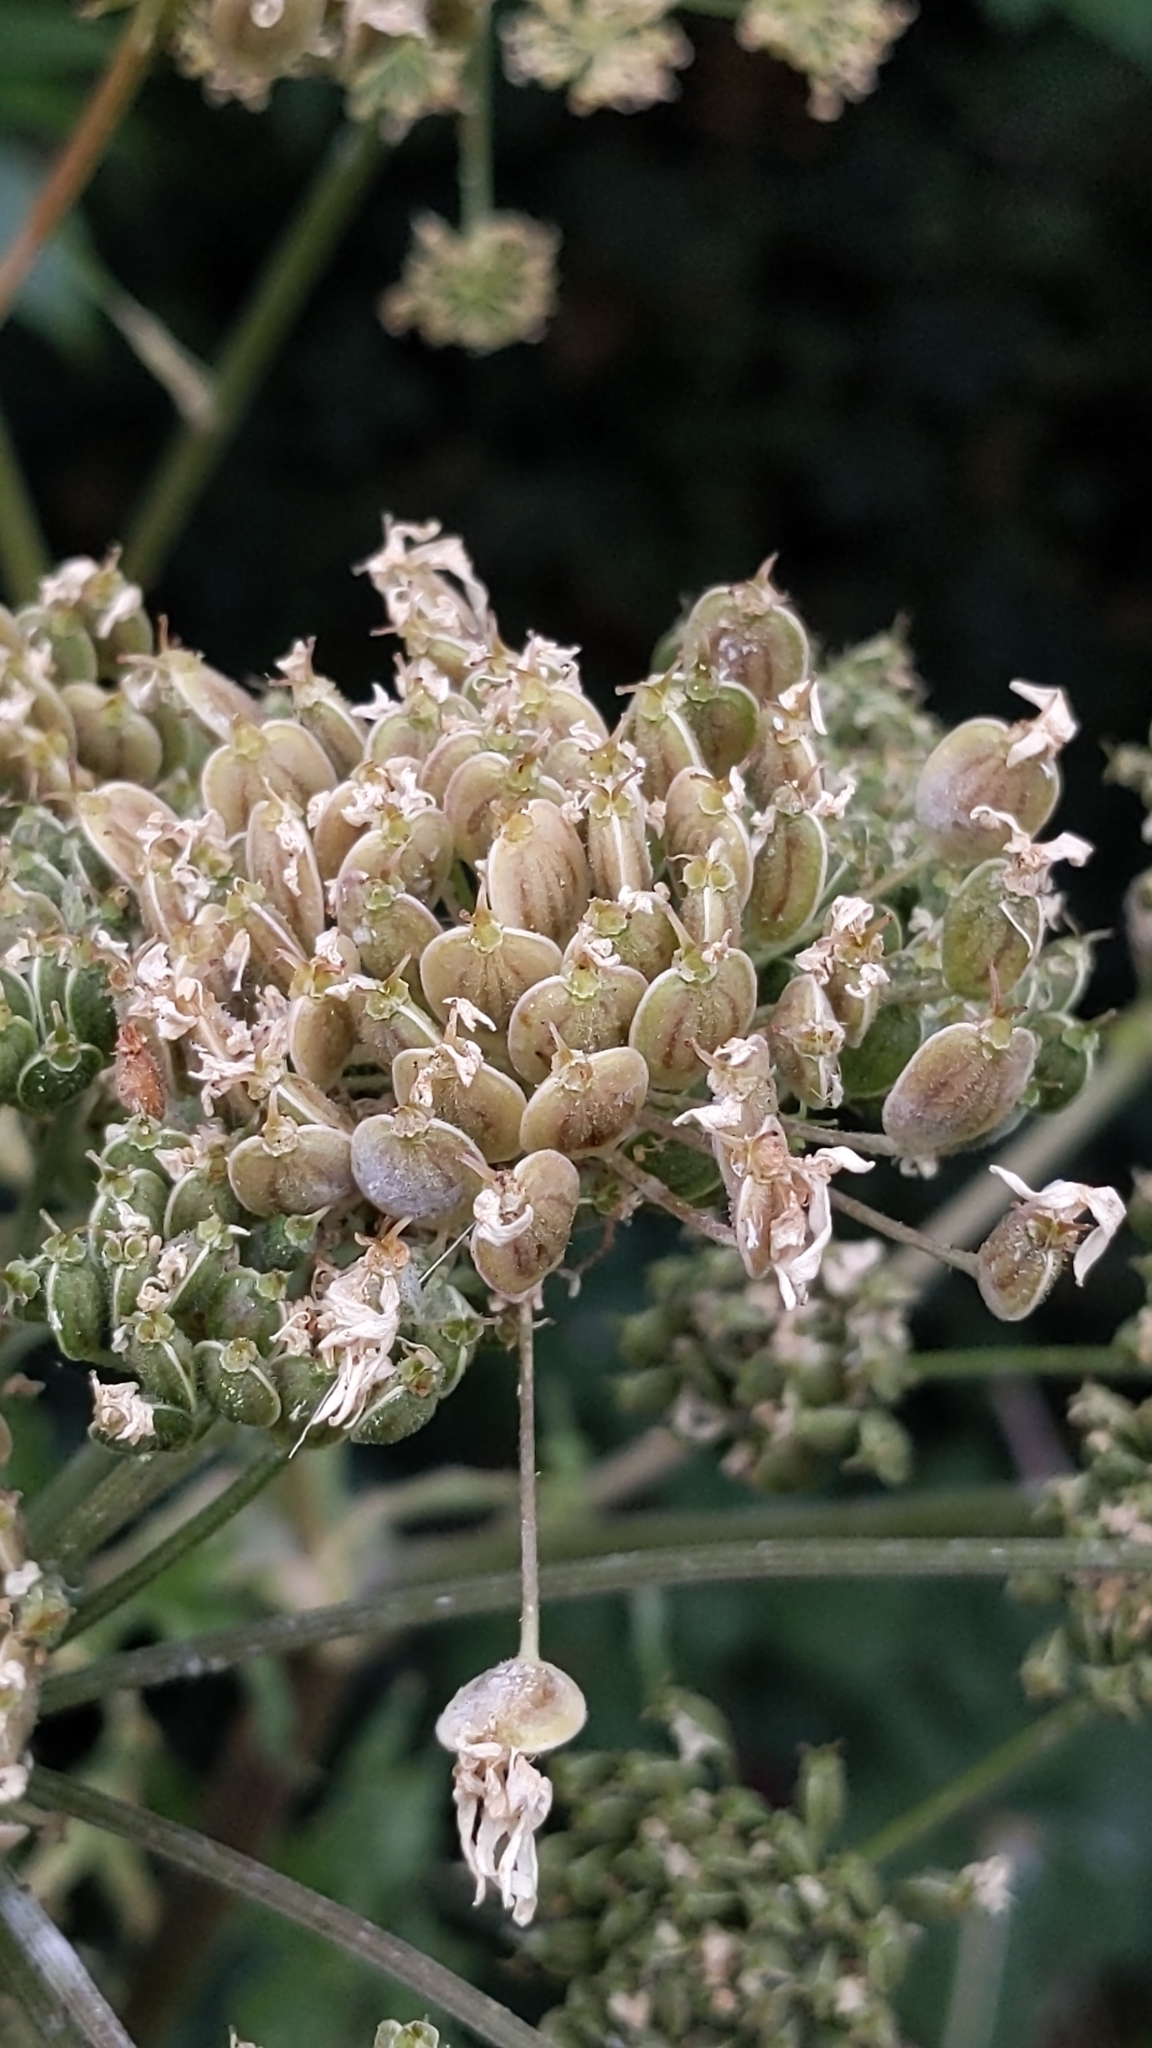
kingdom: Plantae
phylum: Tracheophyta
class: Magnoliopsida
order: Apiales
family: Apiaceae
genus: Heracleum
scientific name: Heracleum sphondylium
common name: Hogweed
